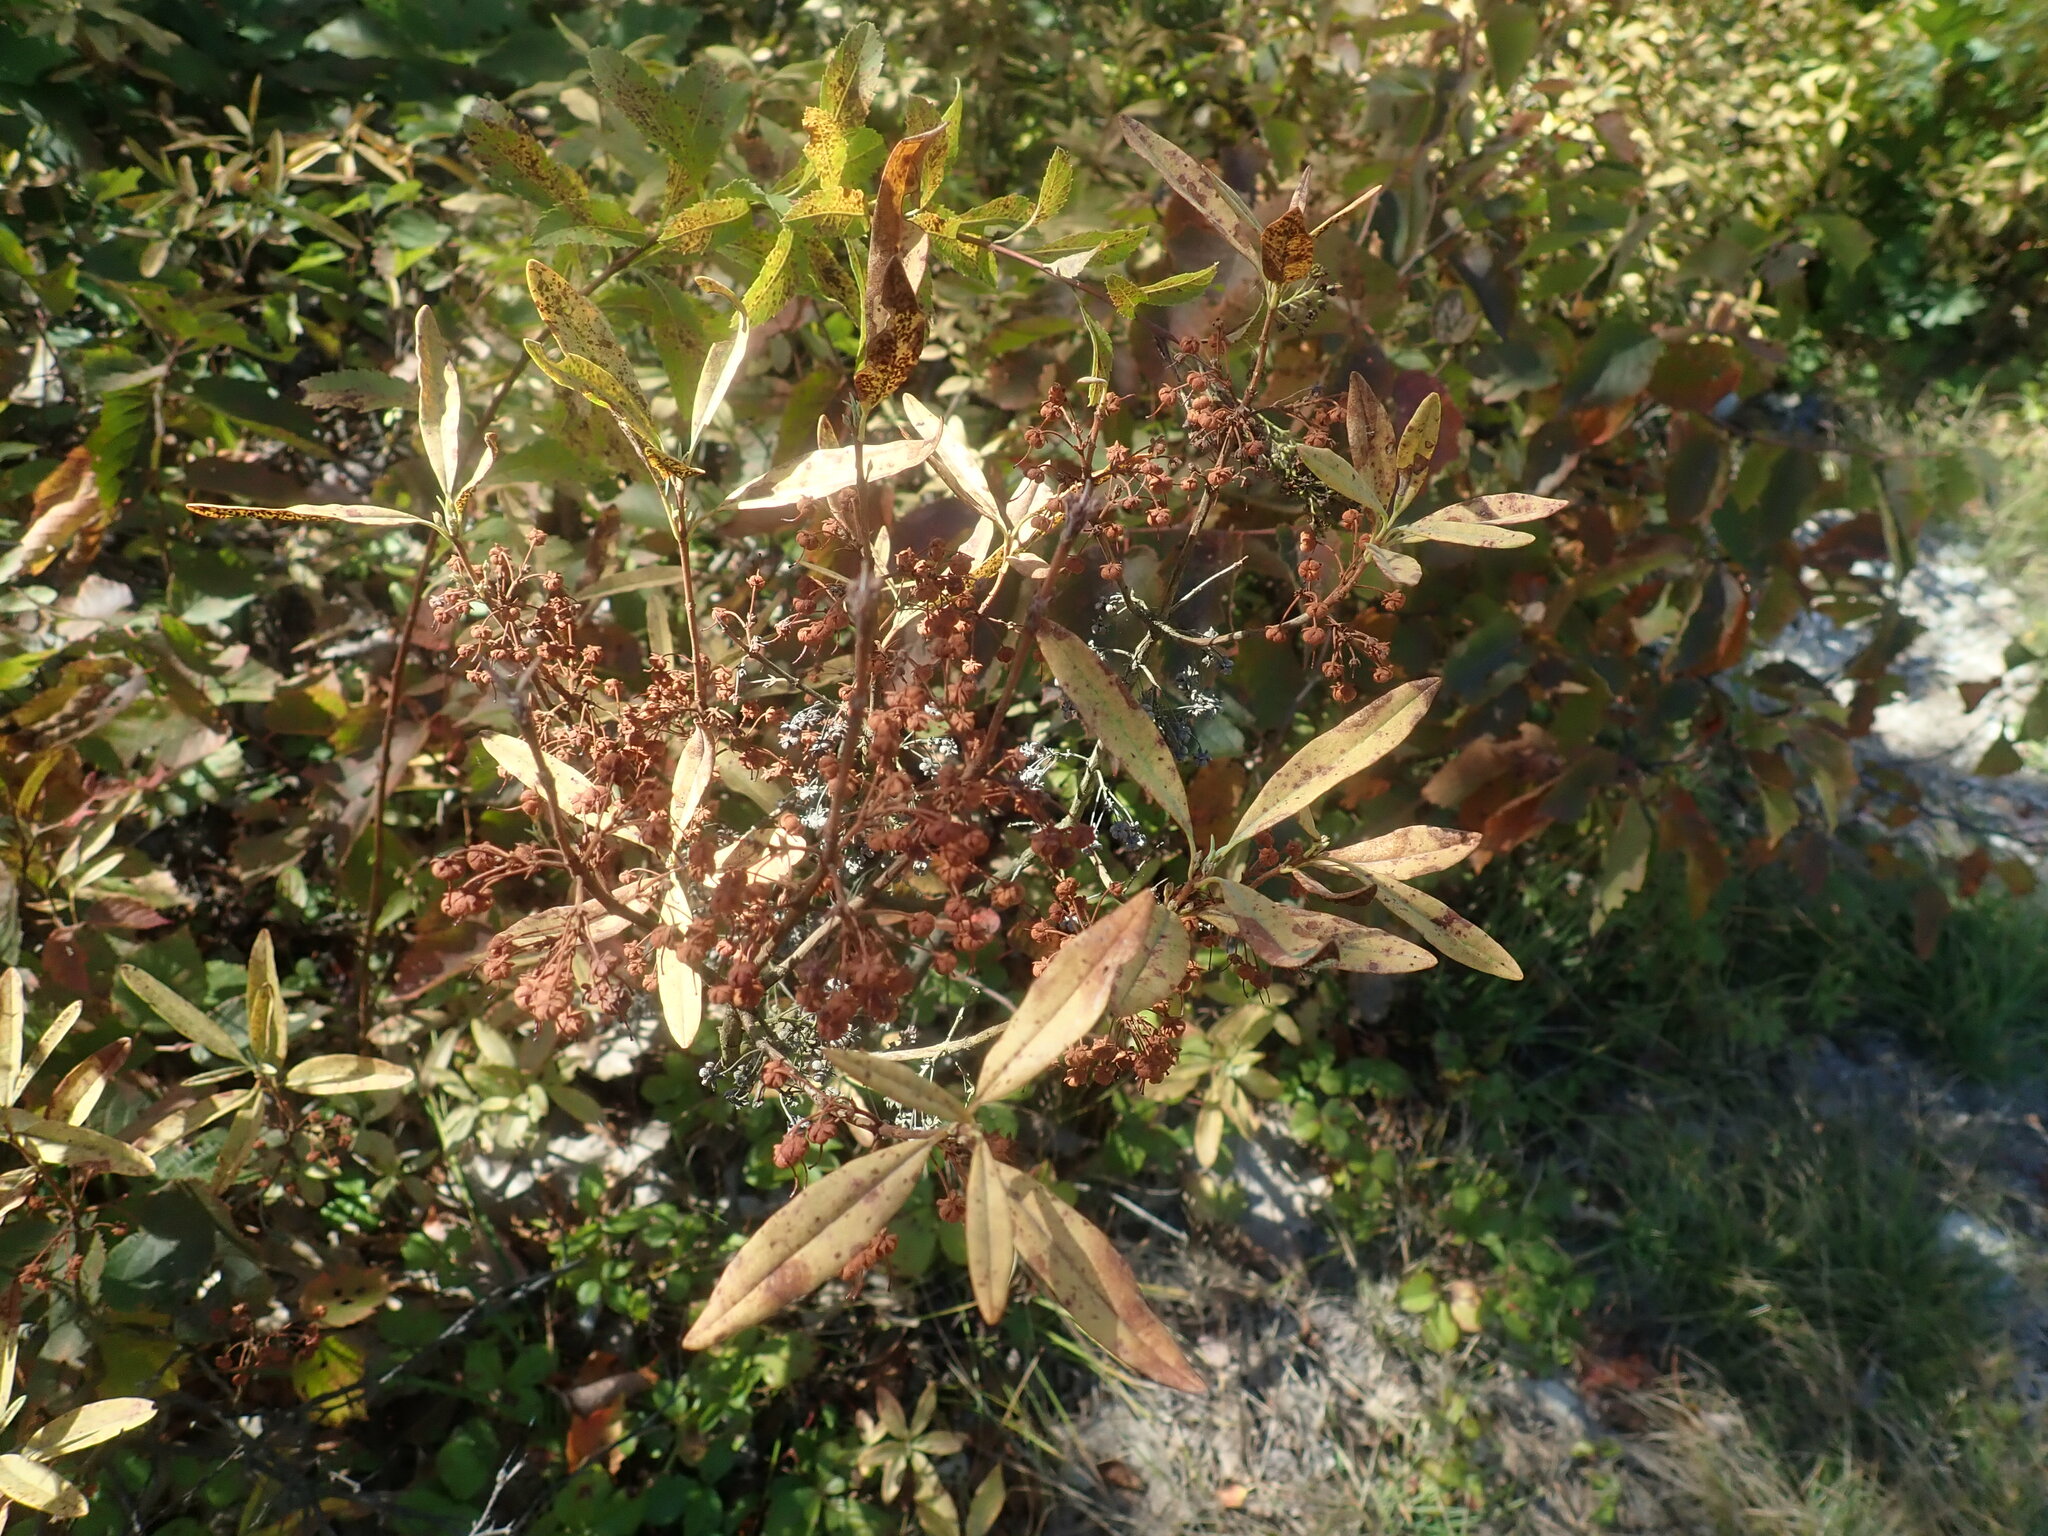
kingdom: Plantae
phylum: Tracheophyta
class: Magnoliopsida
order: Ericales
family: Ericaceae
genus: Kalmia
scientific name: Kalmia angustifolia
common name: Sheep-laurel
